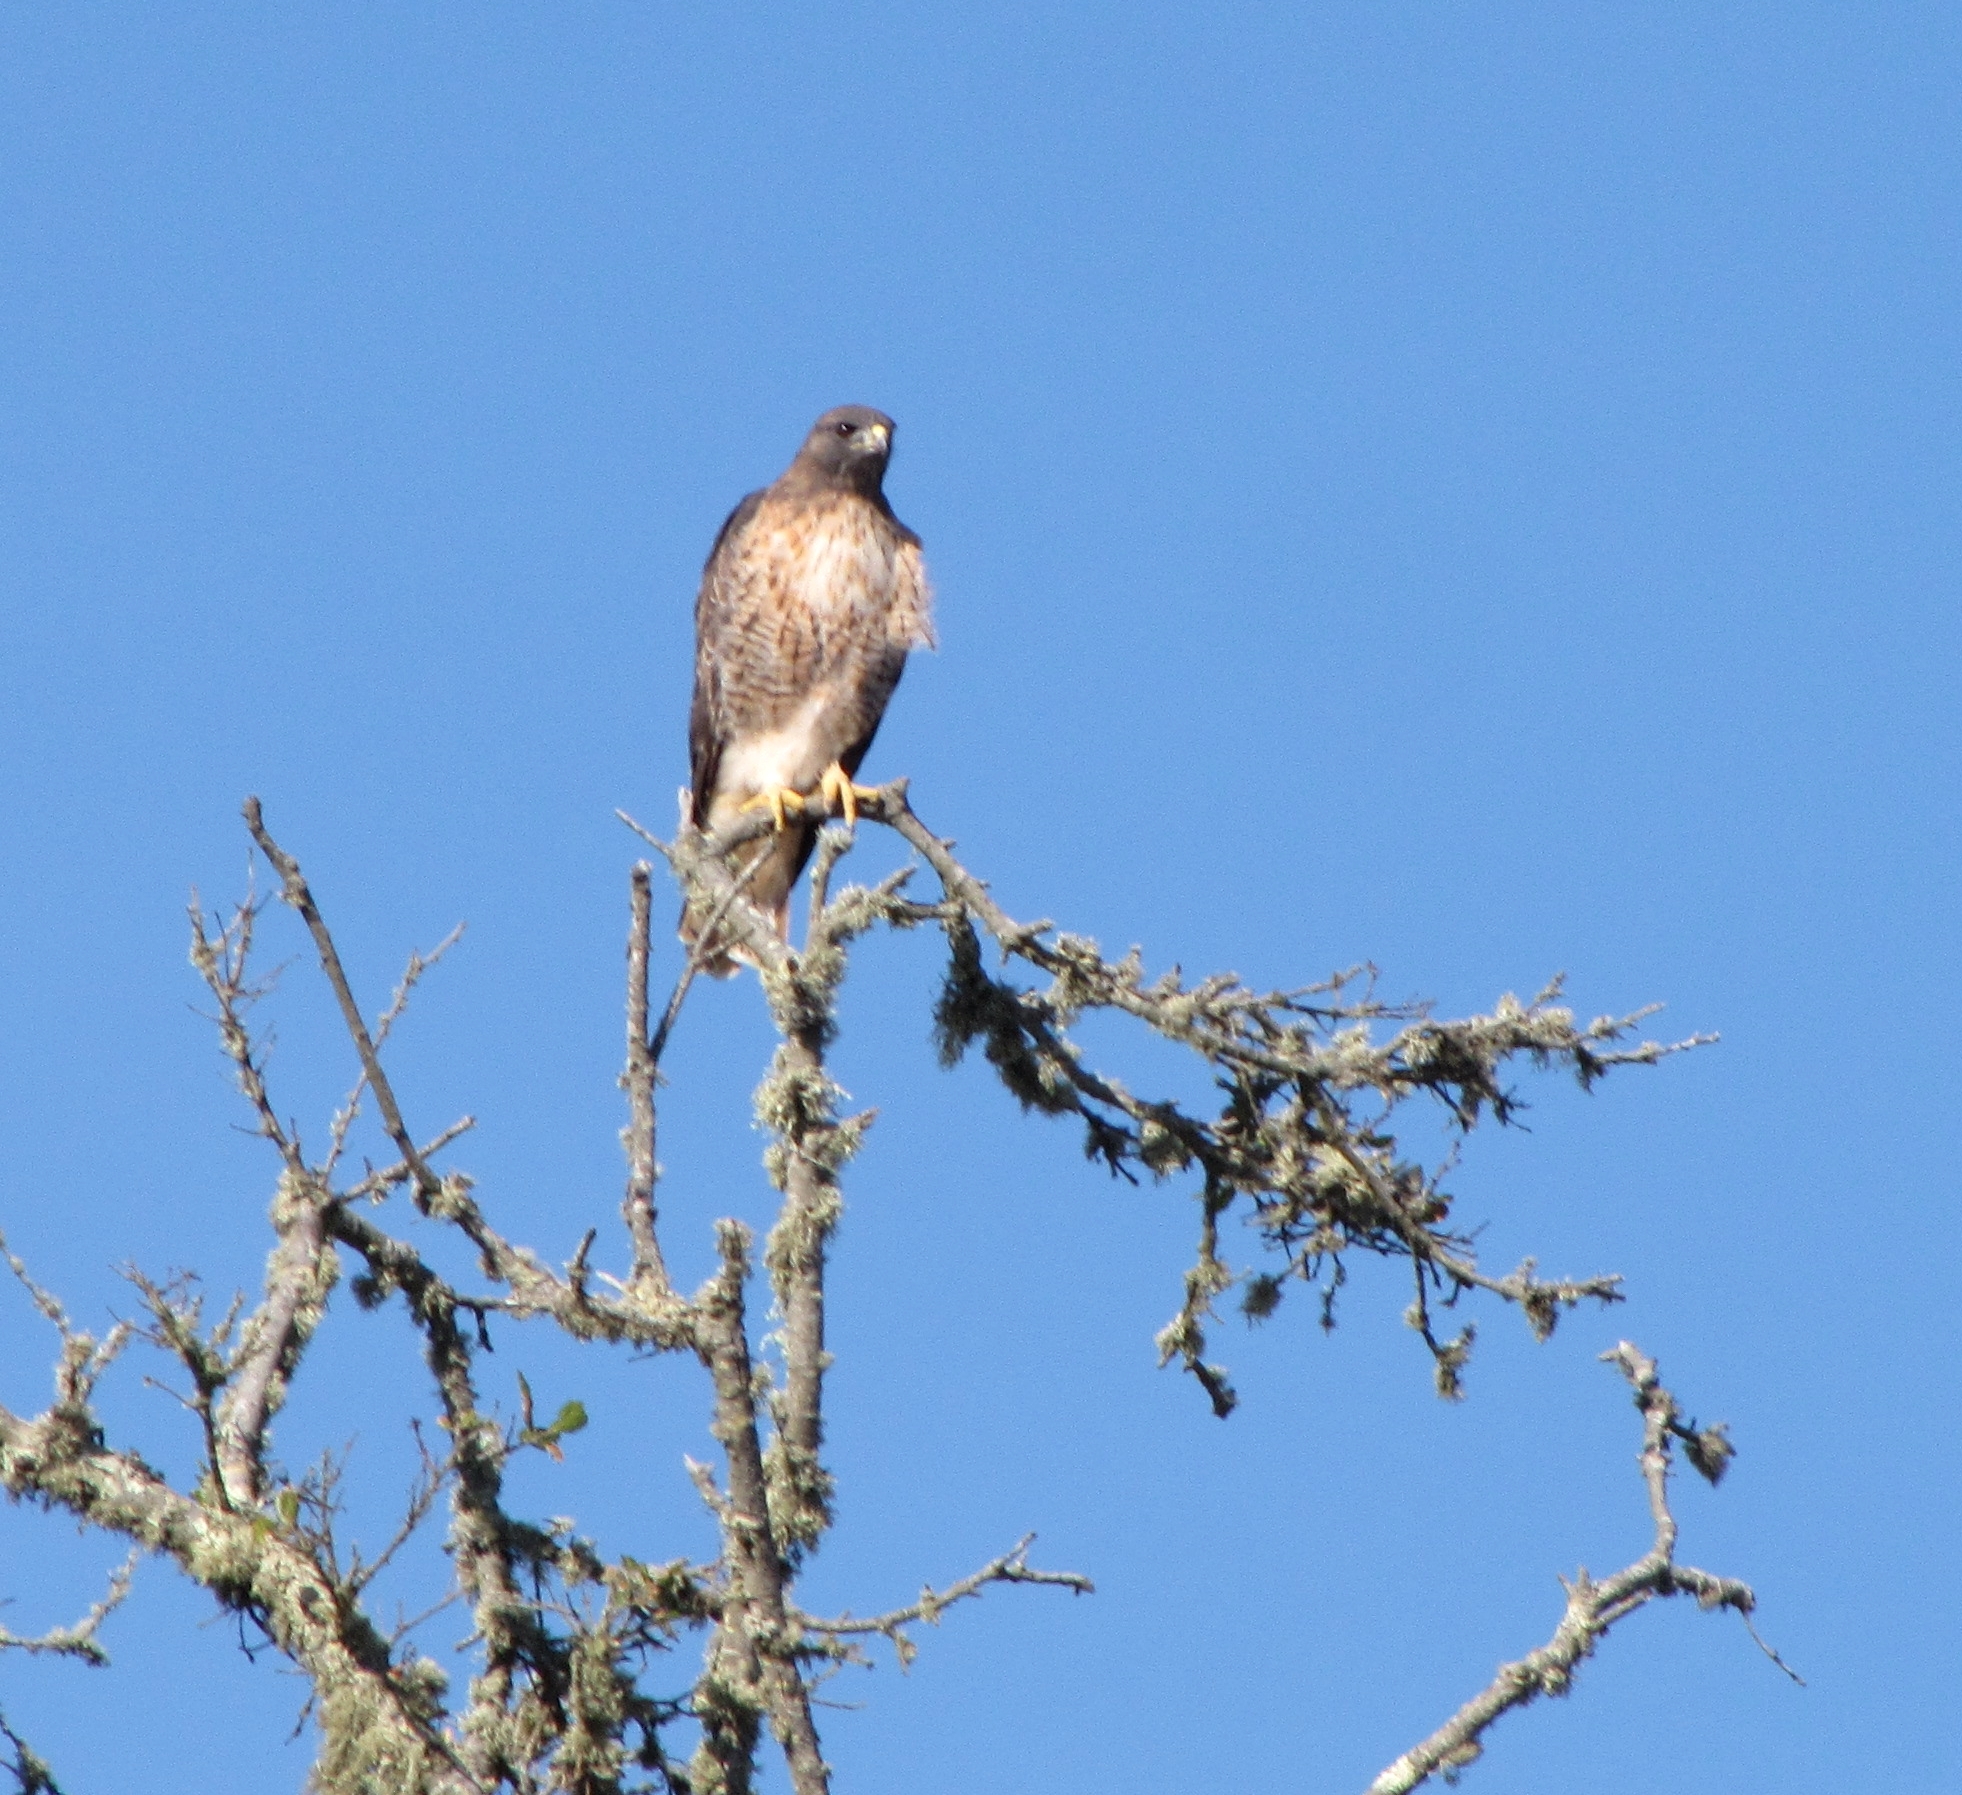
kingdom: Animalia
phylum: Chordata
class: Aves
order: Accipitriformes
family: Accipitridae
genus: Buteo
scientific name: Buteo jamaicensis
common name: Red-tailed hawk
